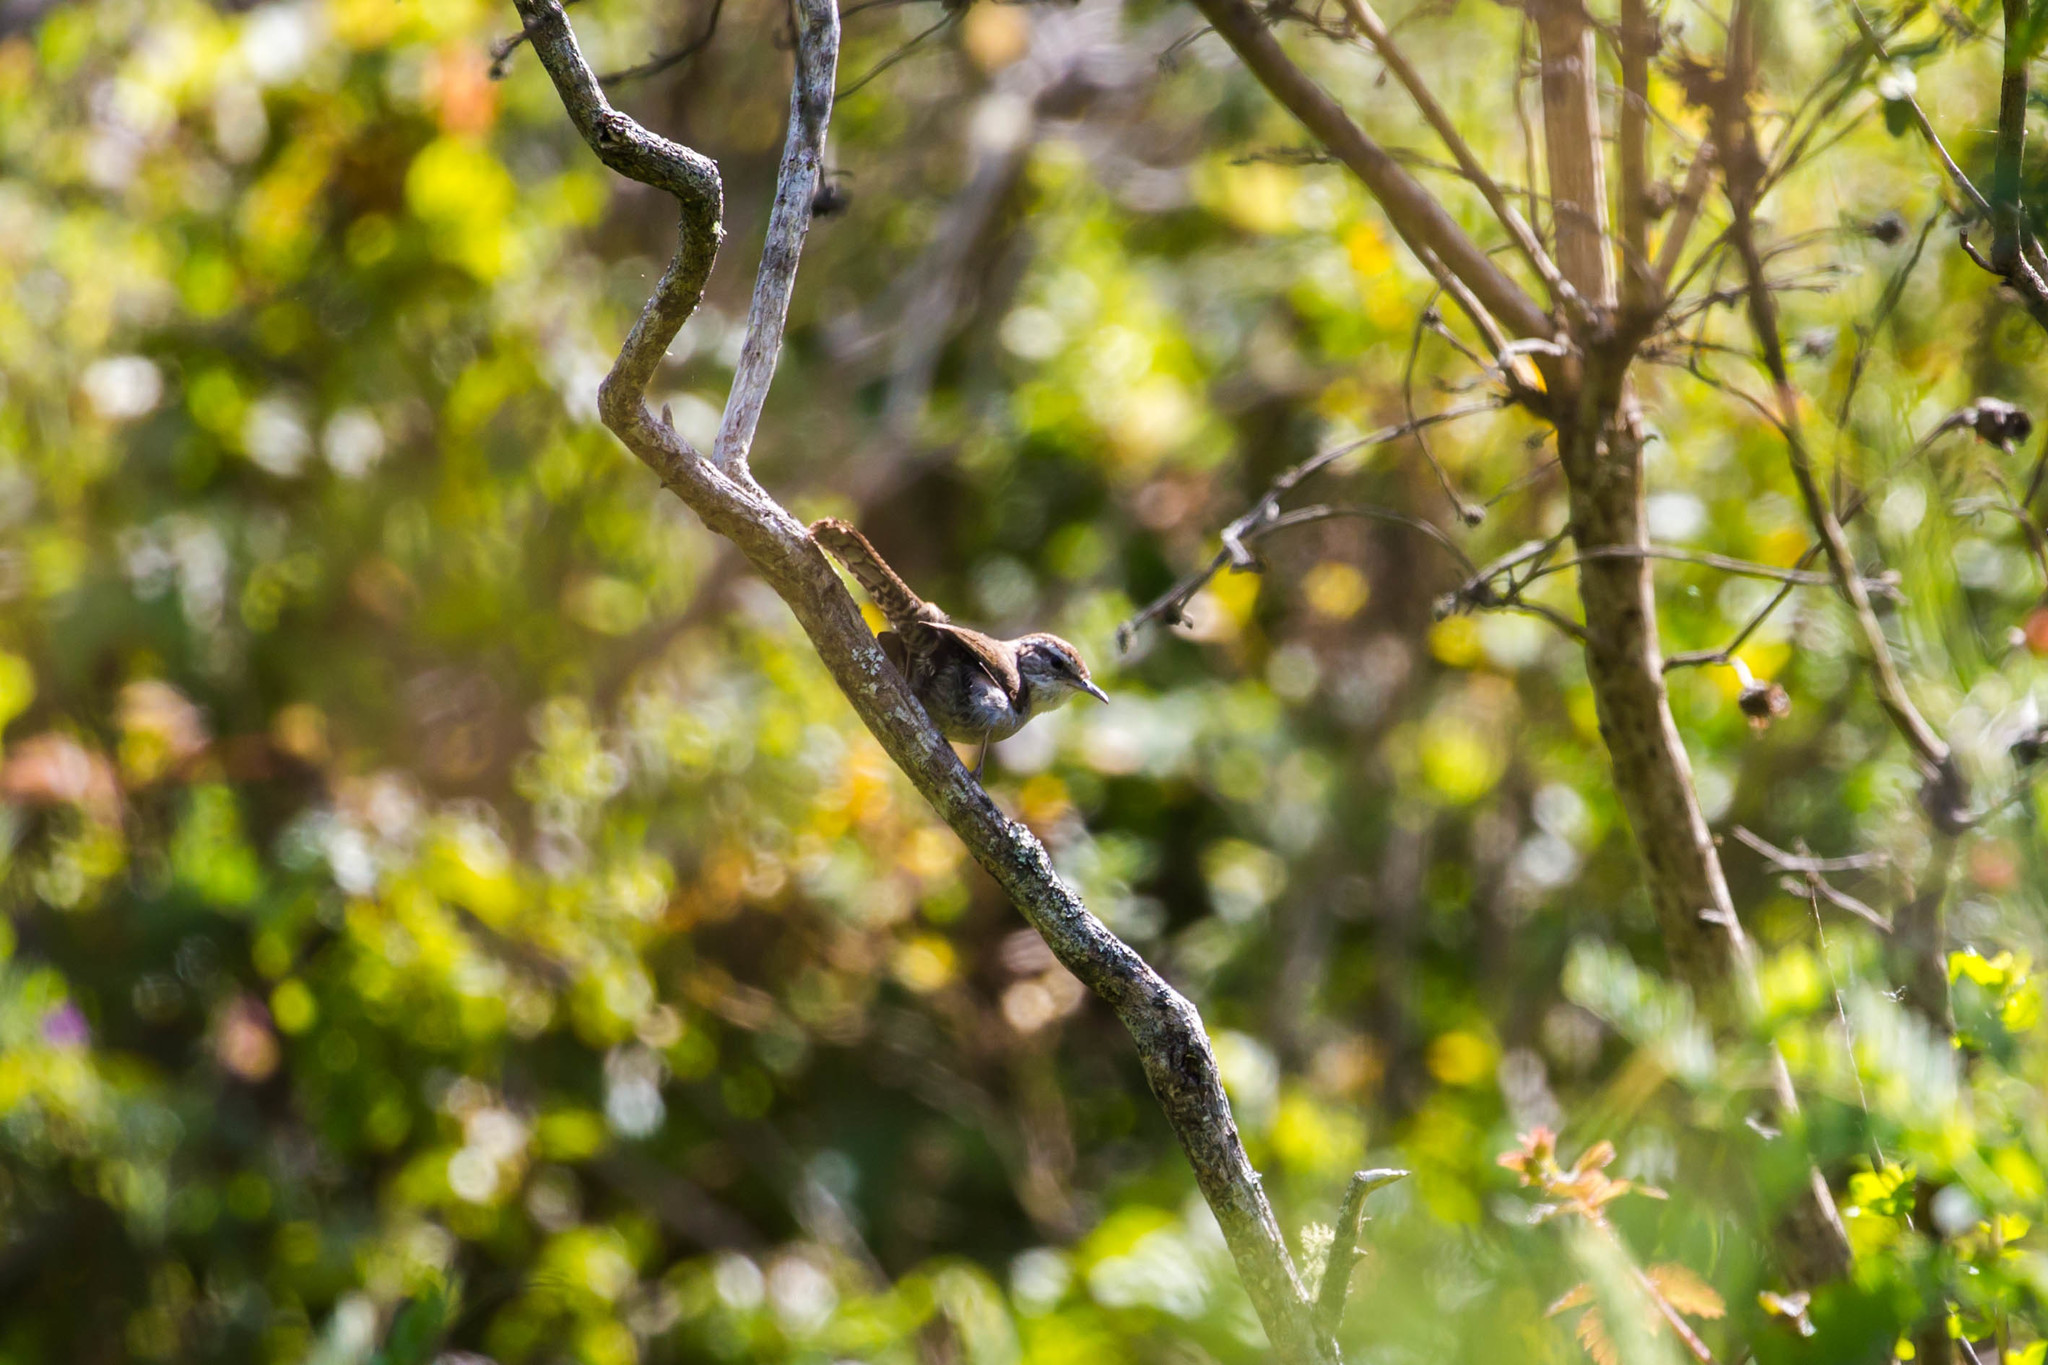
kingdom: Animalia
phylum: Chordata
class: Aves
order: Passeriformes
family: Troglodytidae
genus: Thryomanes
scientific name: Thryomanes bewickii
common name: Bewick's wren
